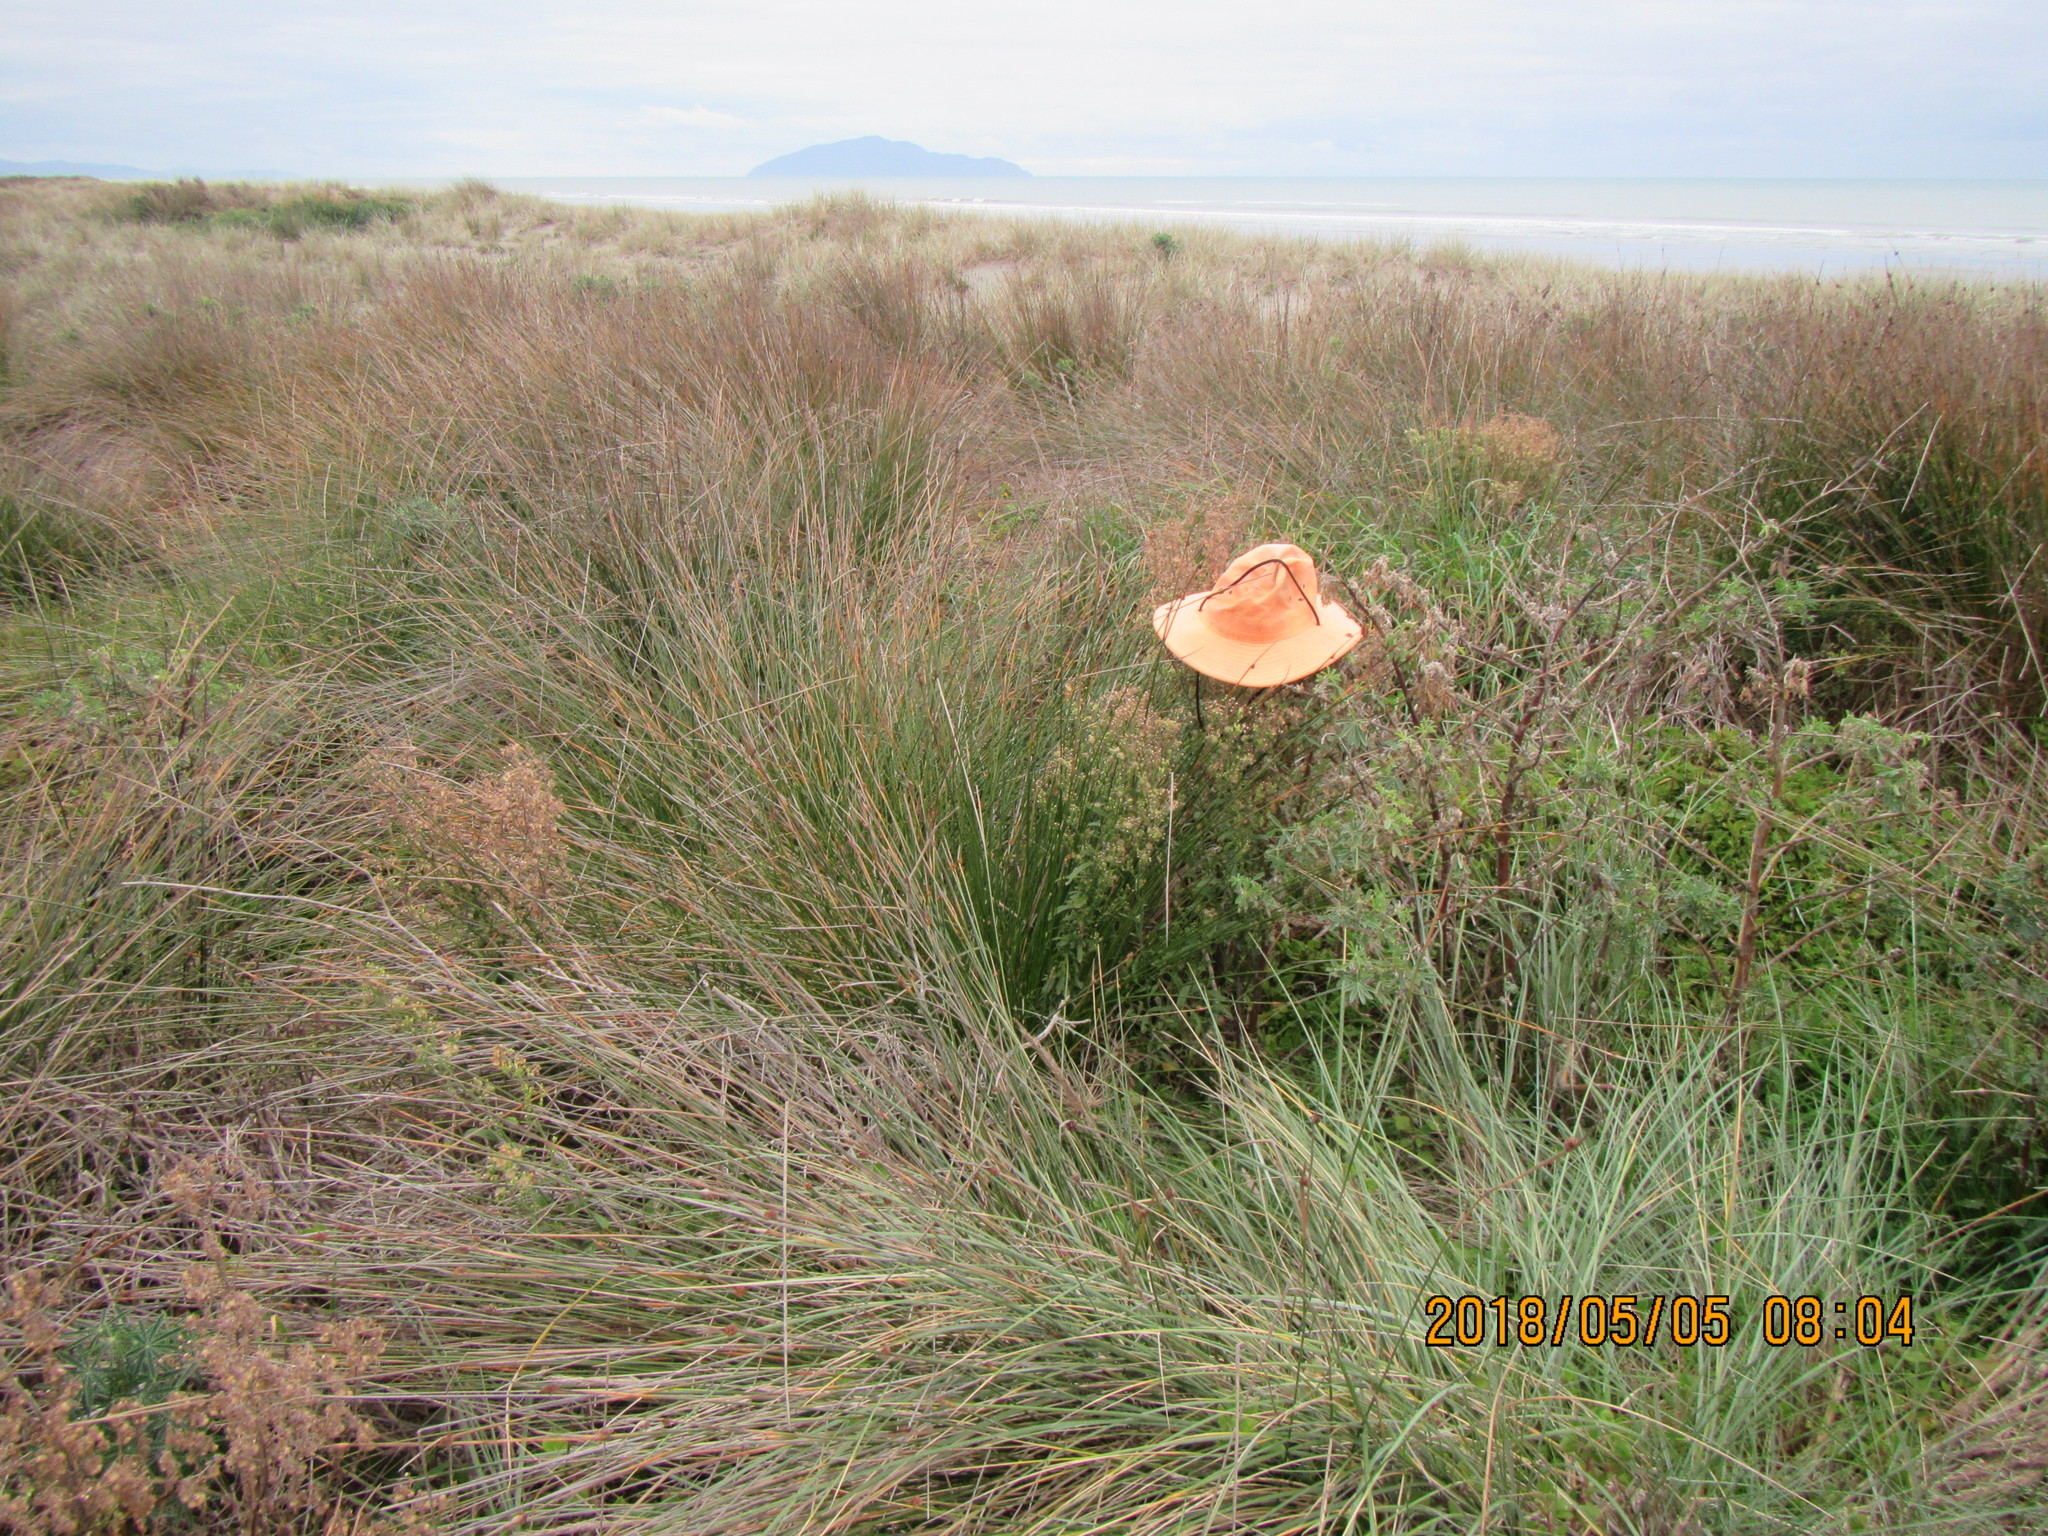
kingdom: Plantae
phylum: Tracheophyta
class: Magnoliopsida
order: Asterales
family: Asteraceae
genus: Erigeron
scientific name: Erigeron sumatrensis
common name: Daisy
